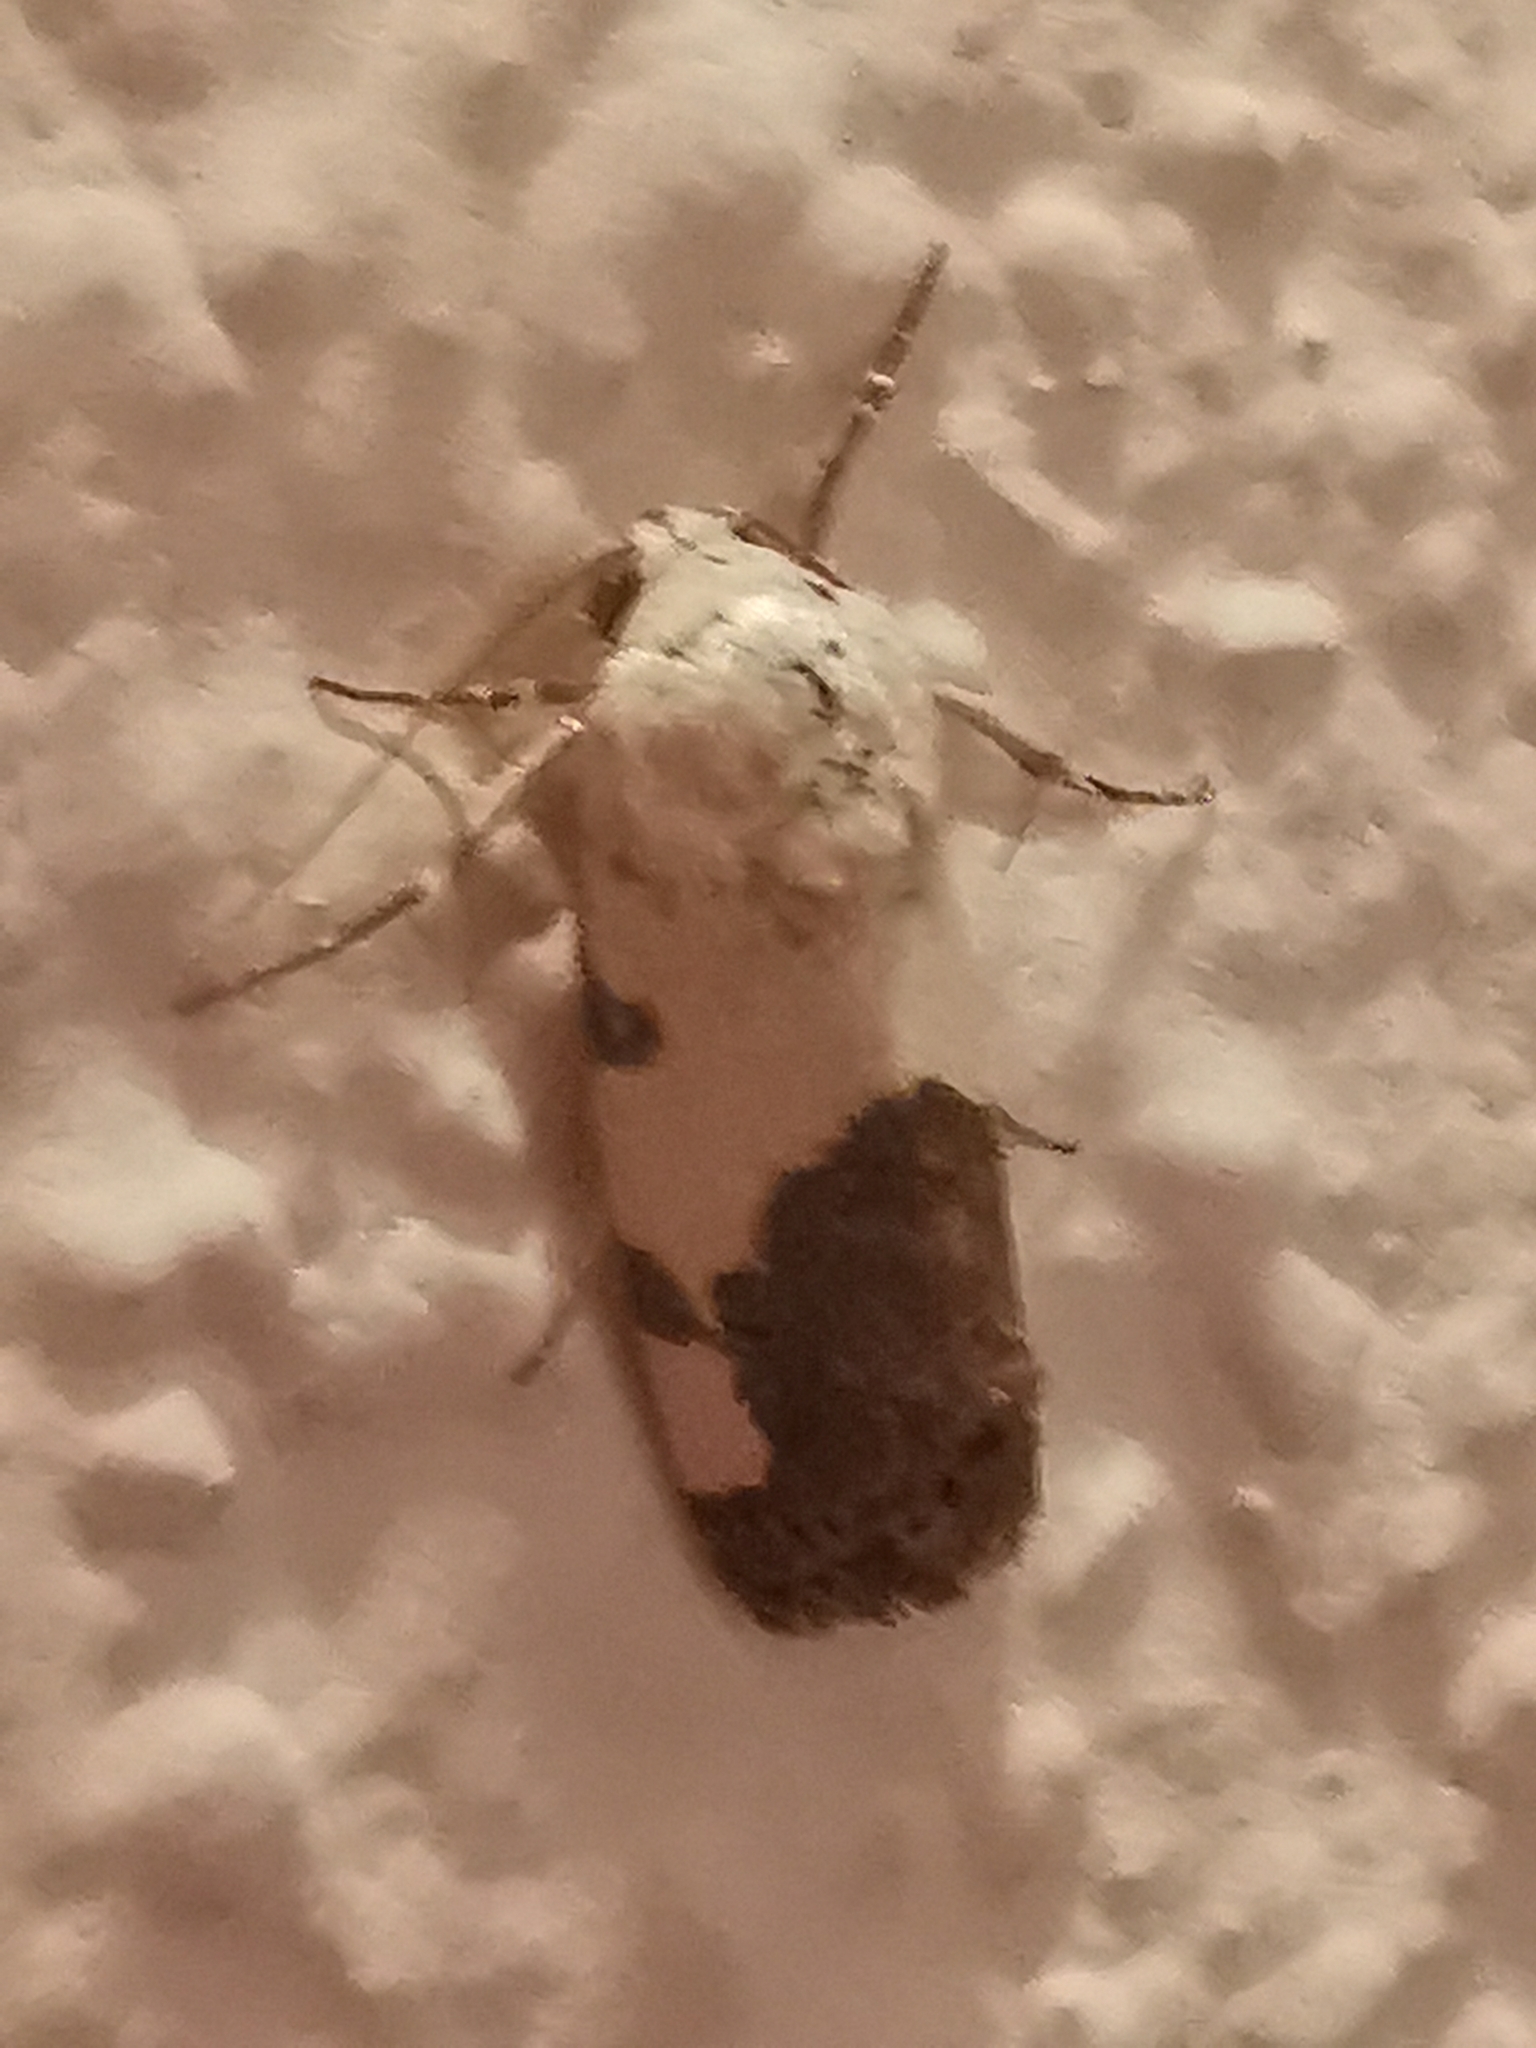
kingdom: Animalia
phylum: Arthropoda
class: Insecta
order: Lepidoptera
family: Noctuidae
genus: Acontia
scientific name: Acontia Tarache tetragona
